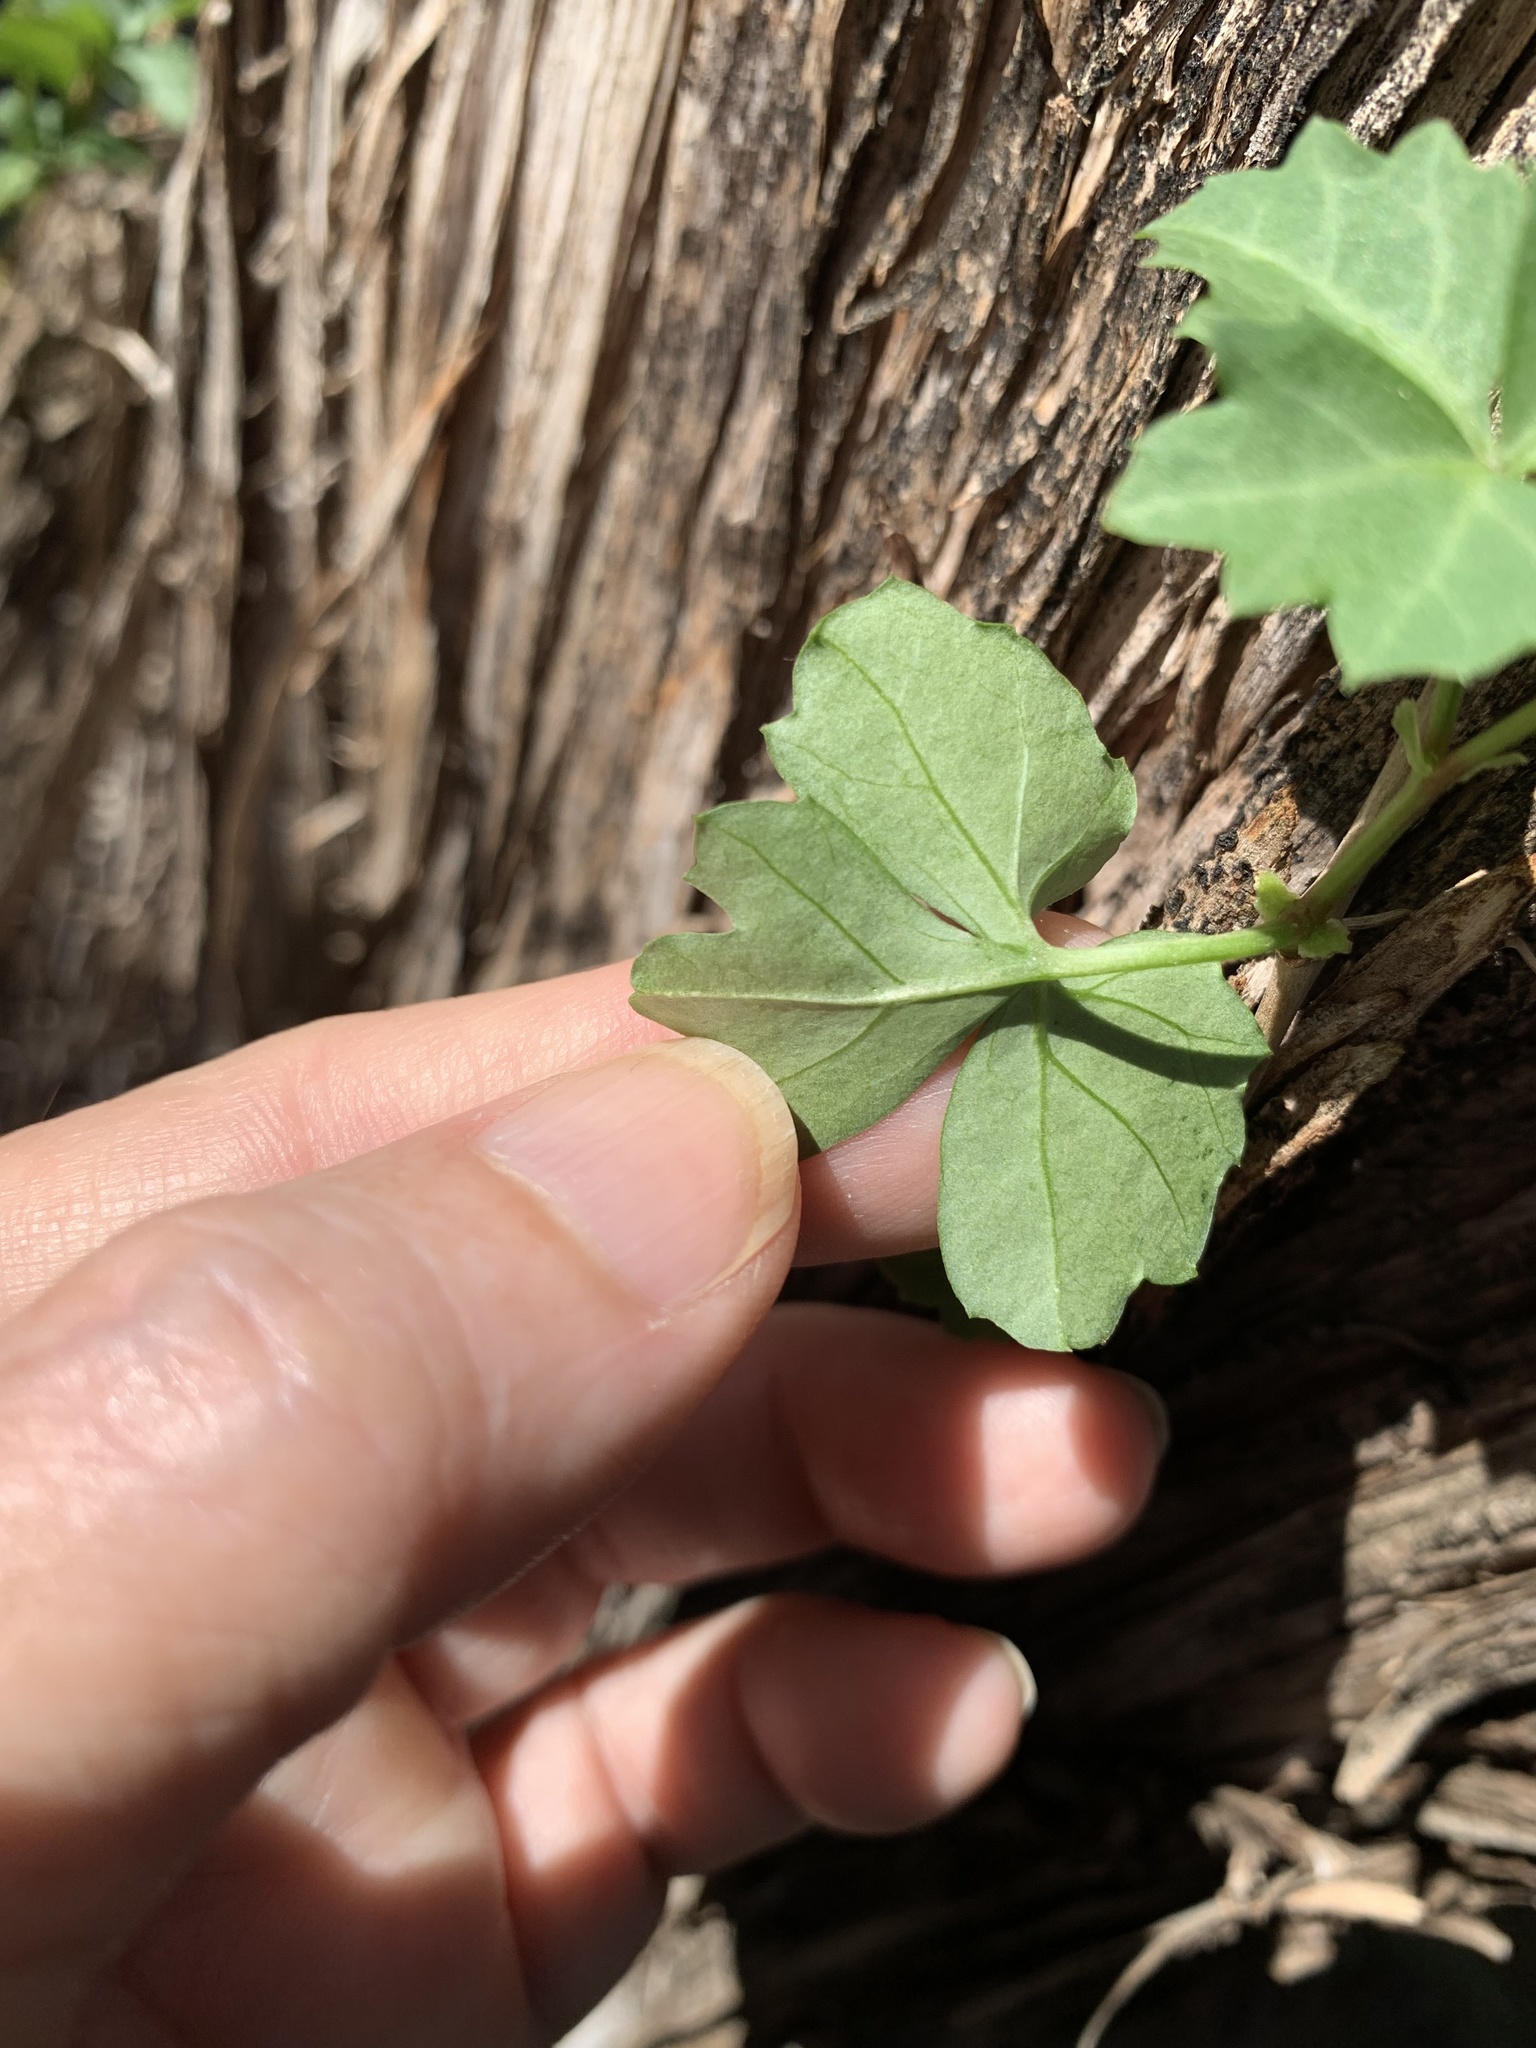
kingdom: Plantae
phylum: Tracheophyta
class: Magnoliopsida
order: Vitales
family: Vitaceae
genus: Cissus
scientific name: Cissus trifoliata
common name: Vine-sorrel
